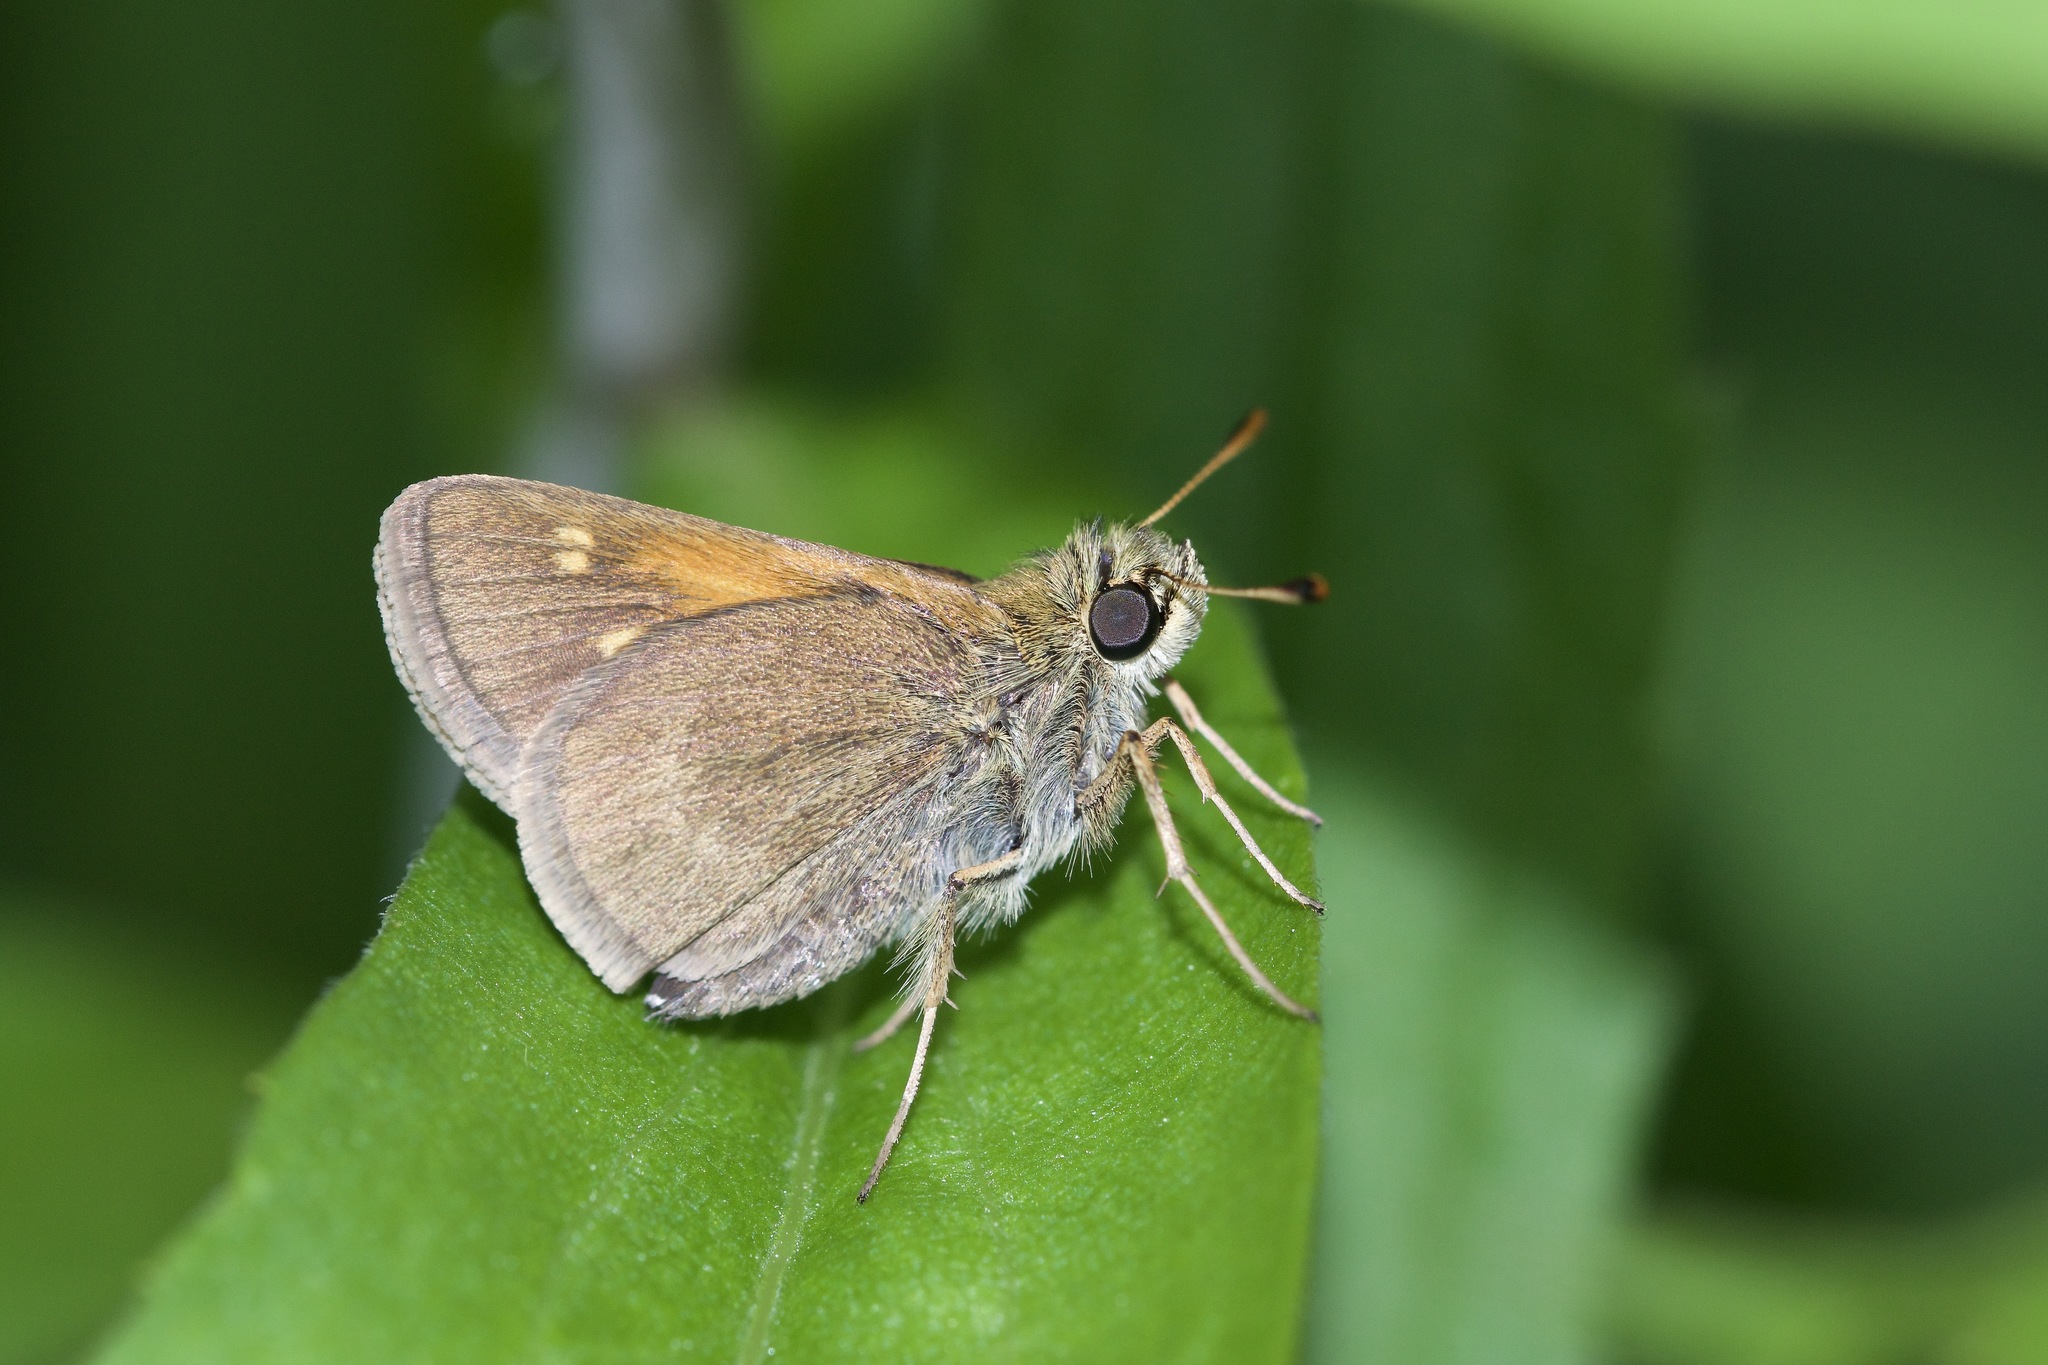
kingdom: Animalia
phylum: Arthropoda
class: Insecta
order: Lepidoptera
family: Hesperiidae
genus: Polites
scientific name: Polites themistocles
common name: Tawny-edged skipper
